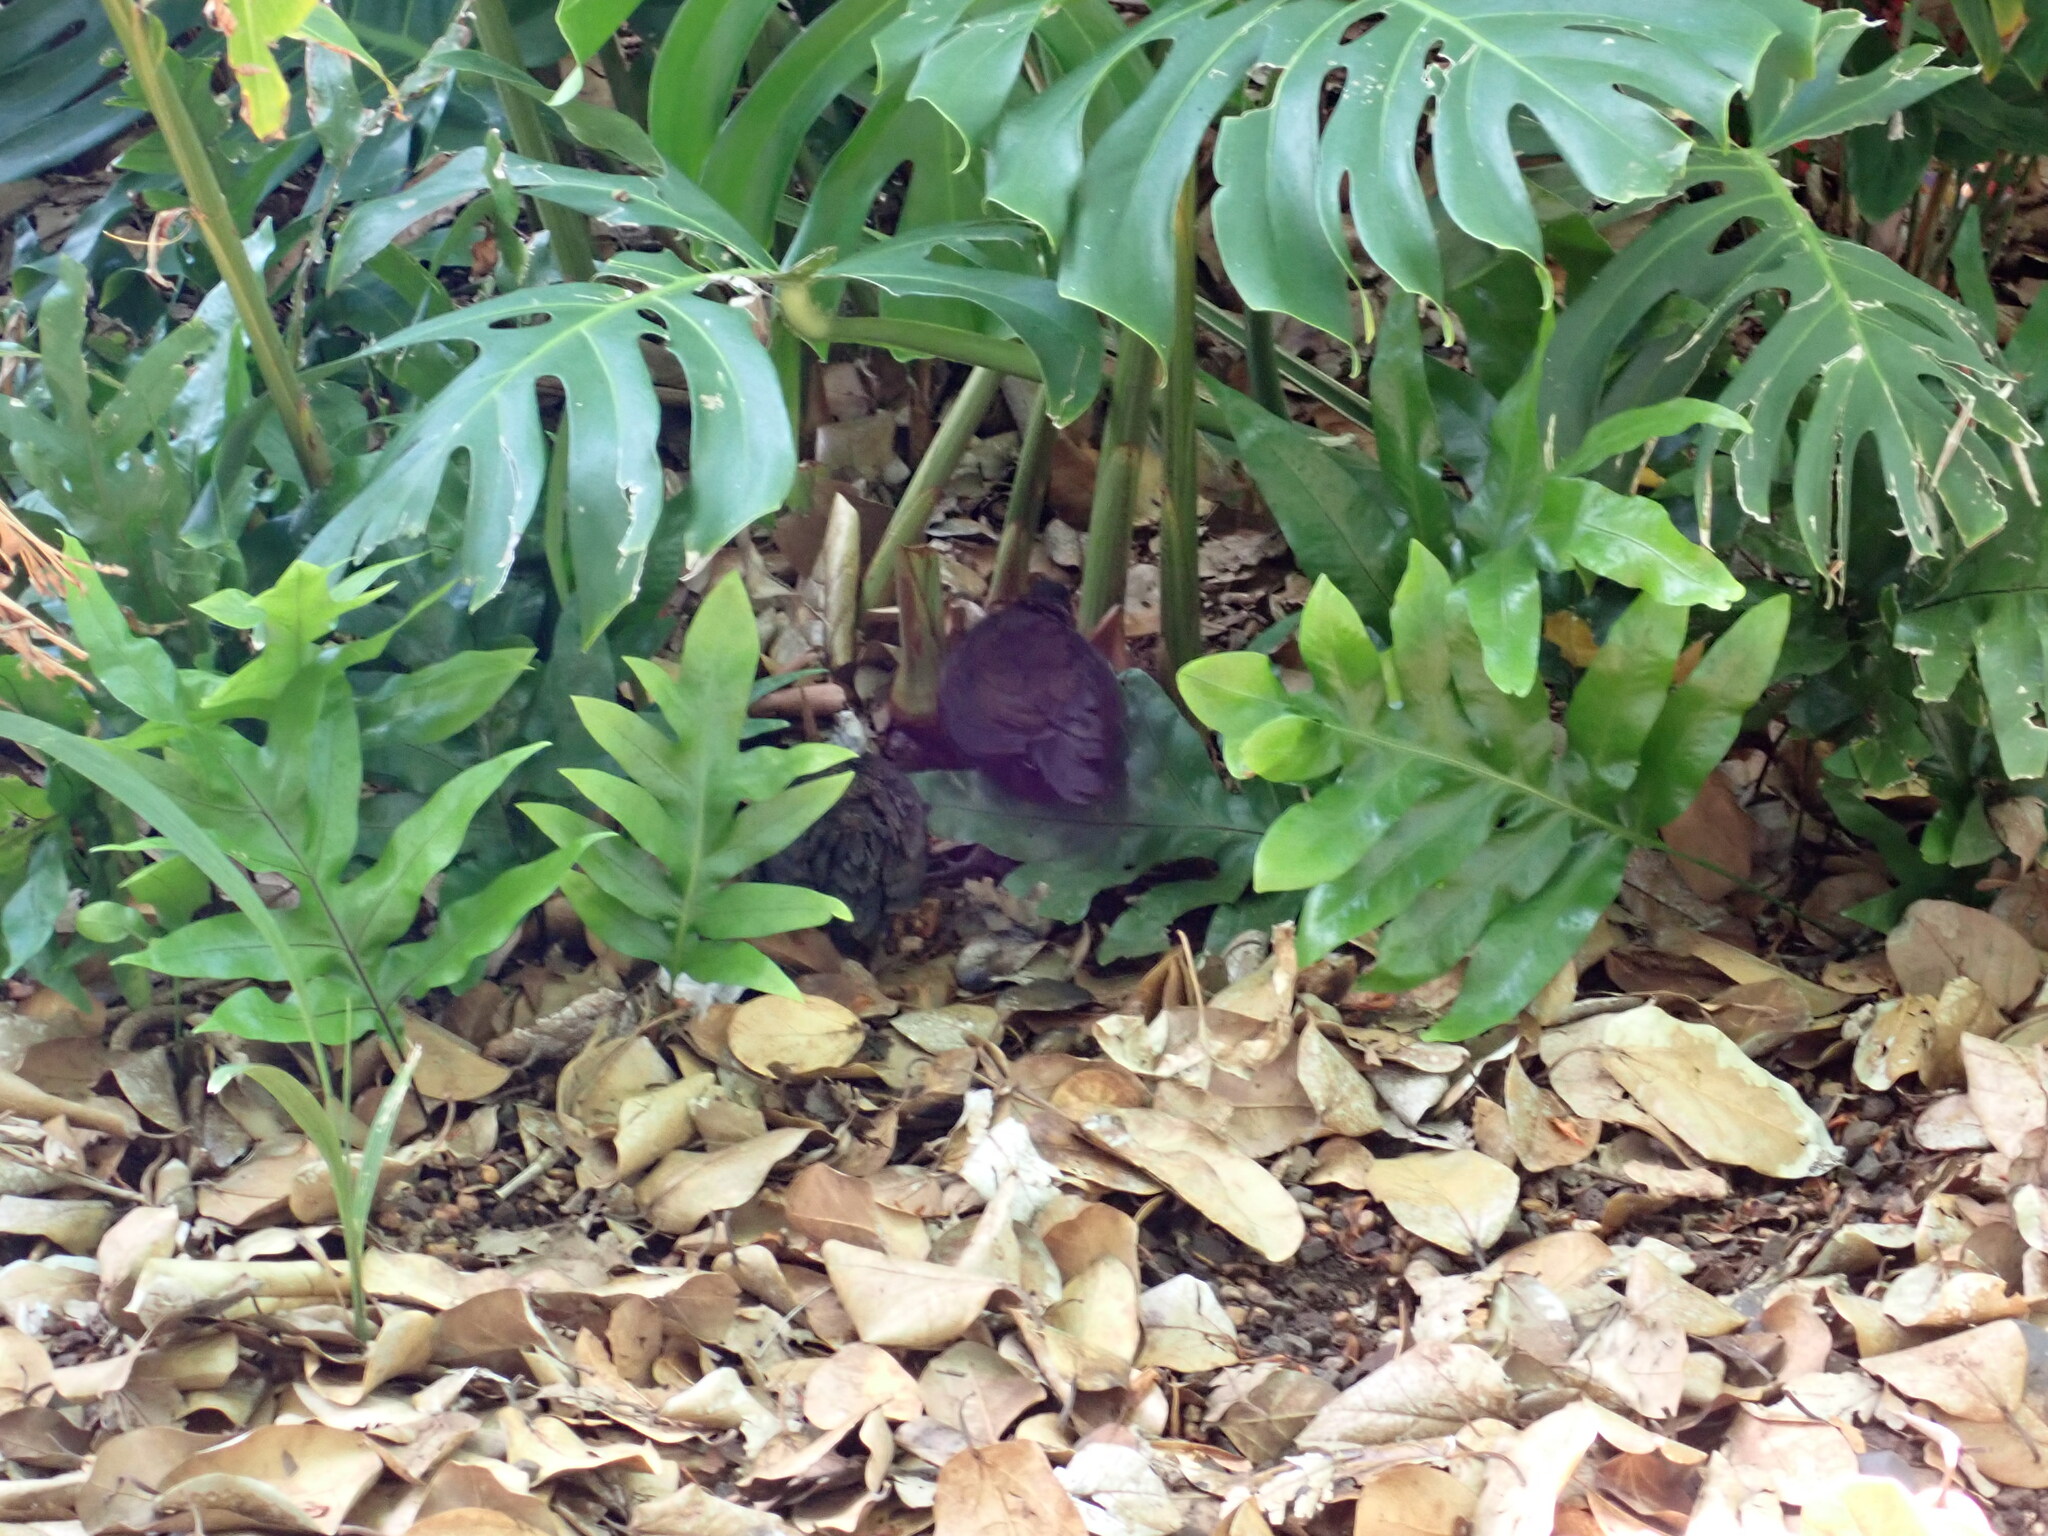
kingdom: Animalia
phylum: Chordata
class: Aves
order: Galliformes
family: Phasianidae
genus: Gallus
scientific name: Gallus gallus
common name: Red junglefowl
